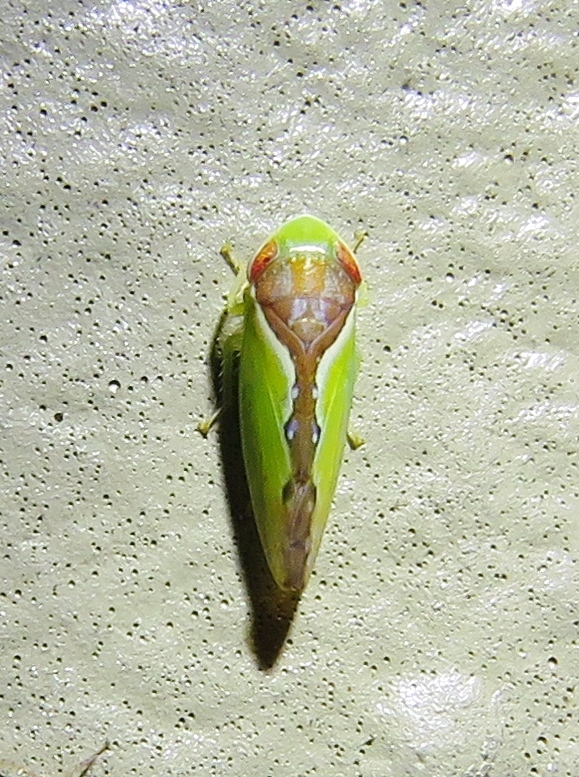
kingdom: Animalia
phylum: Arthropoda
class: Insecta
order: Hemiptera
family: Cicadellidae
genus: Omansobara ing
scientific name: Omansobara ing Omansobara palliolata
